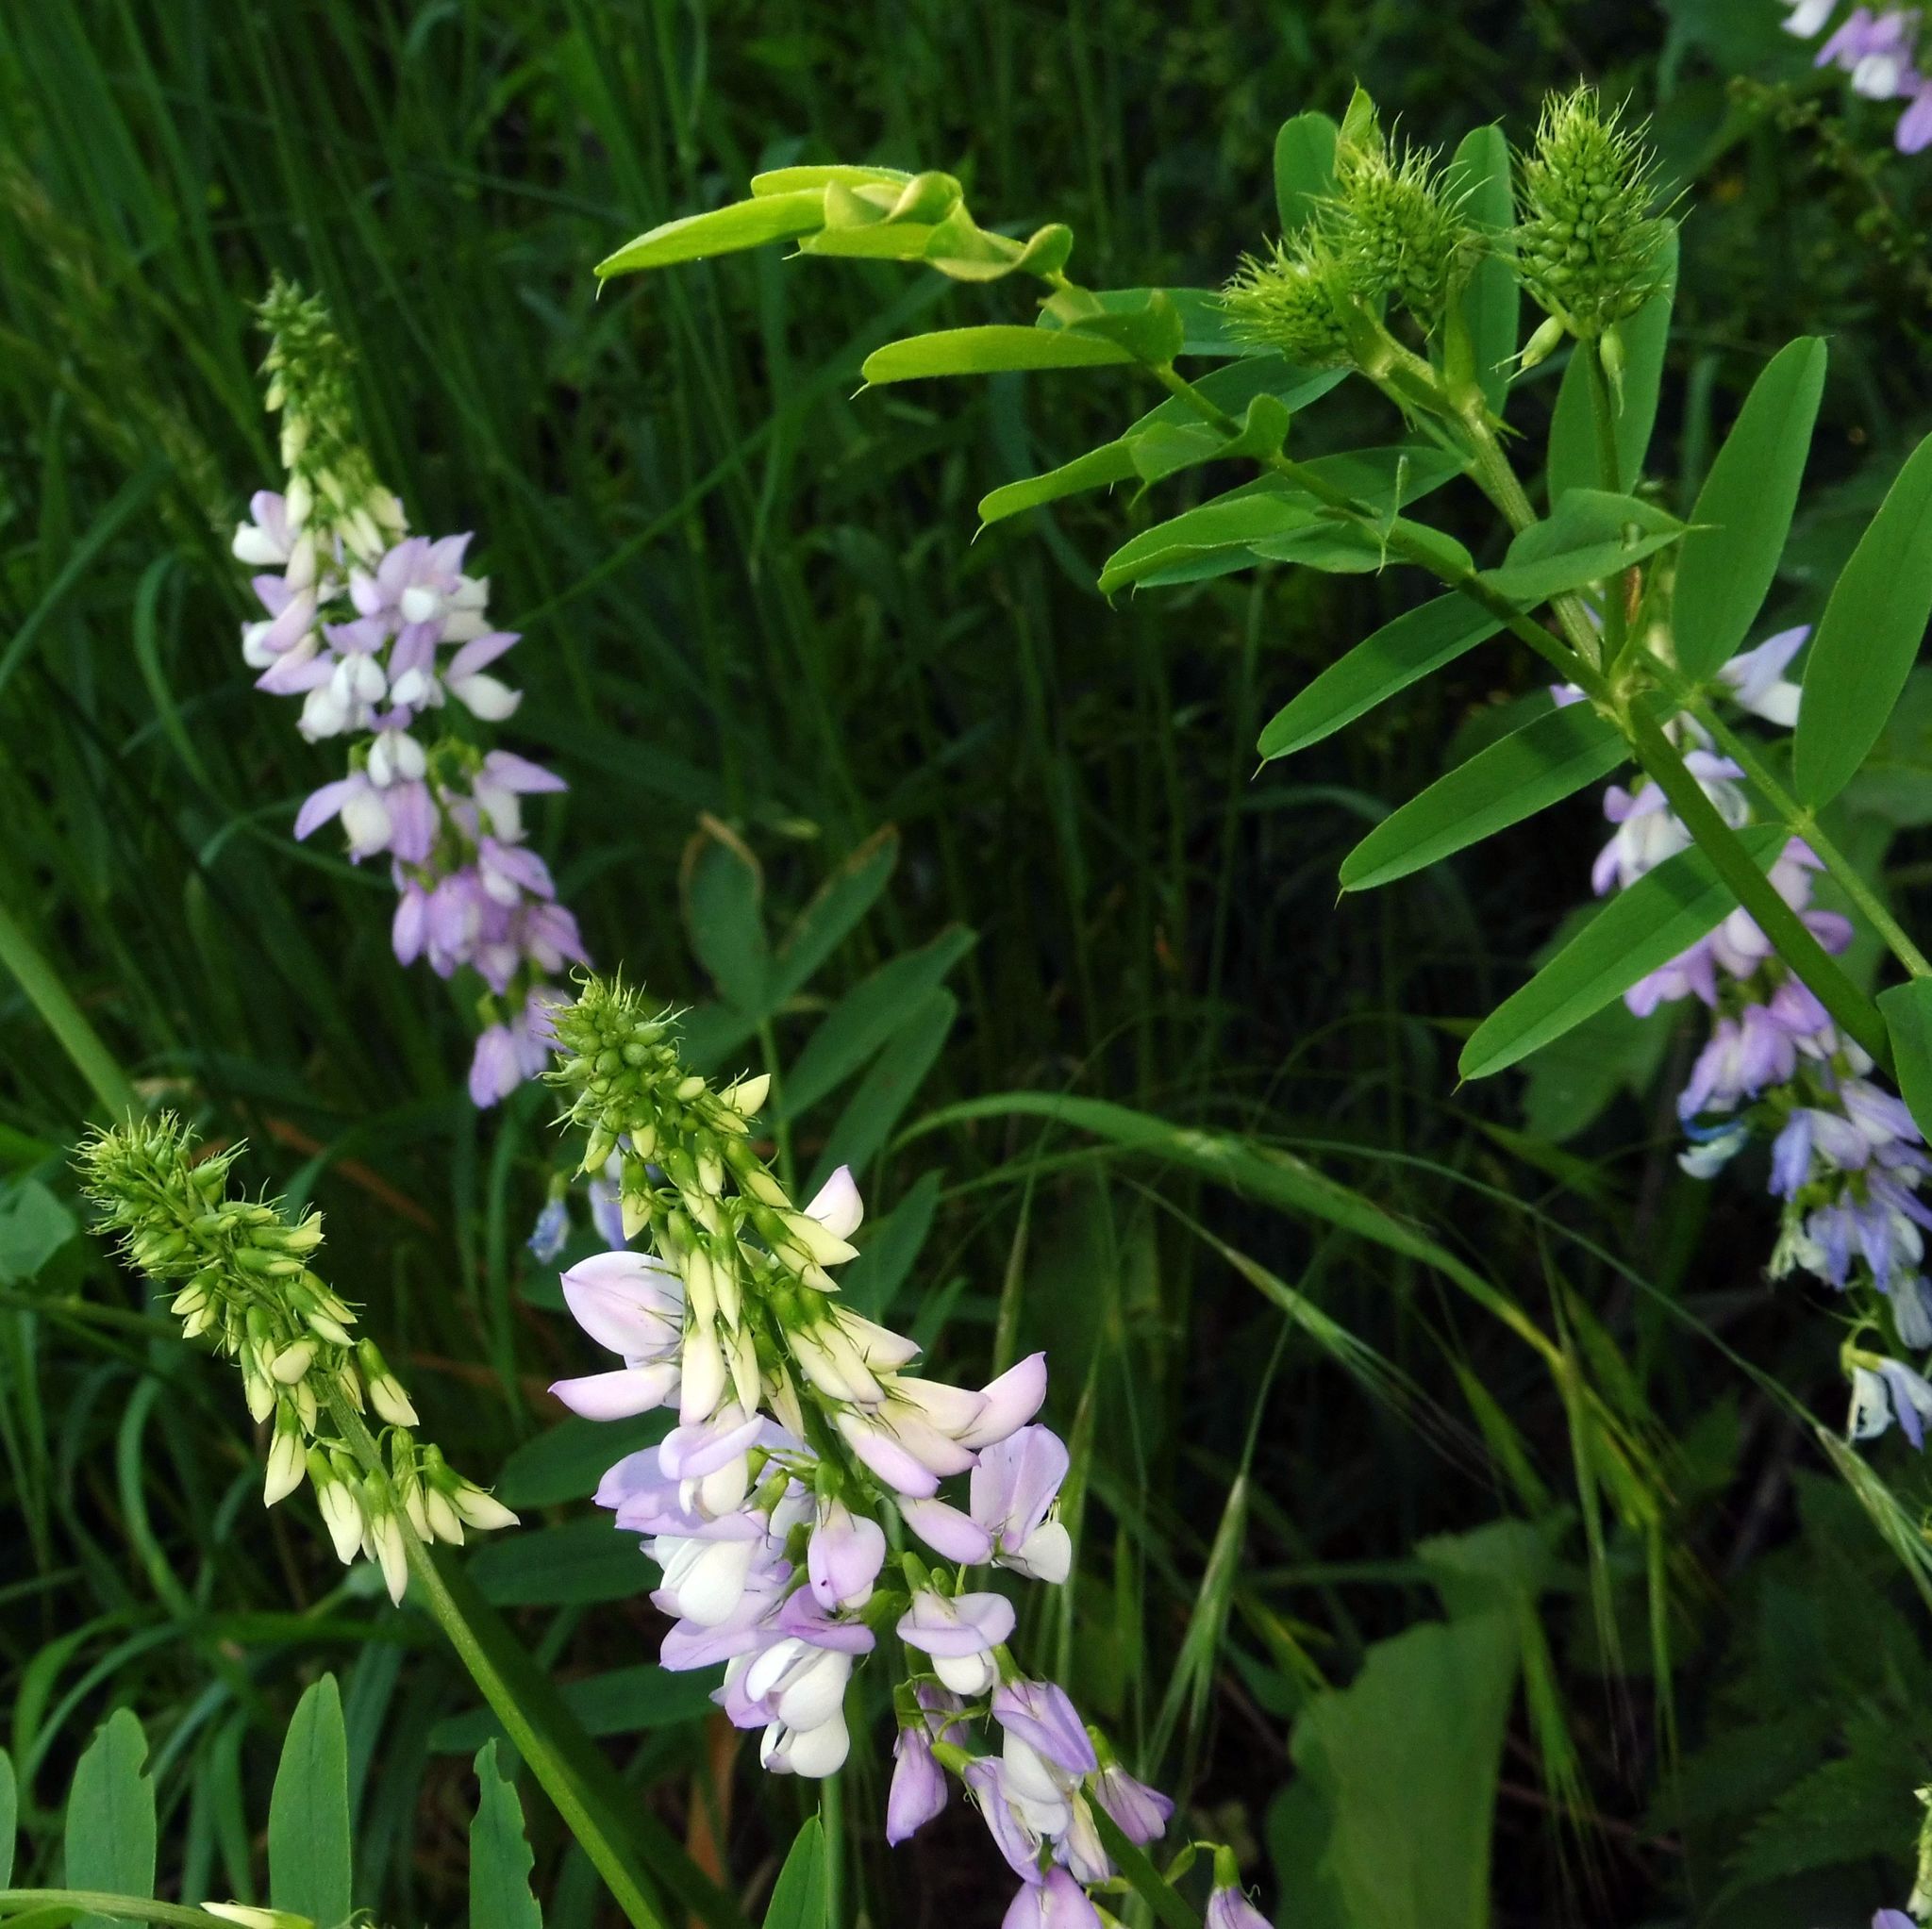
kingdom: Plantae
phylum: Tracheophyta
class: Magnoliopsida
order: Fabales
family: Fabaceae
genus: Galega
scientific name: Galega officinalis
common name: Goat's-rue
